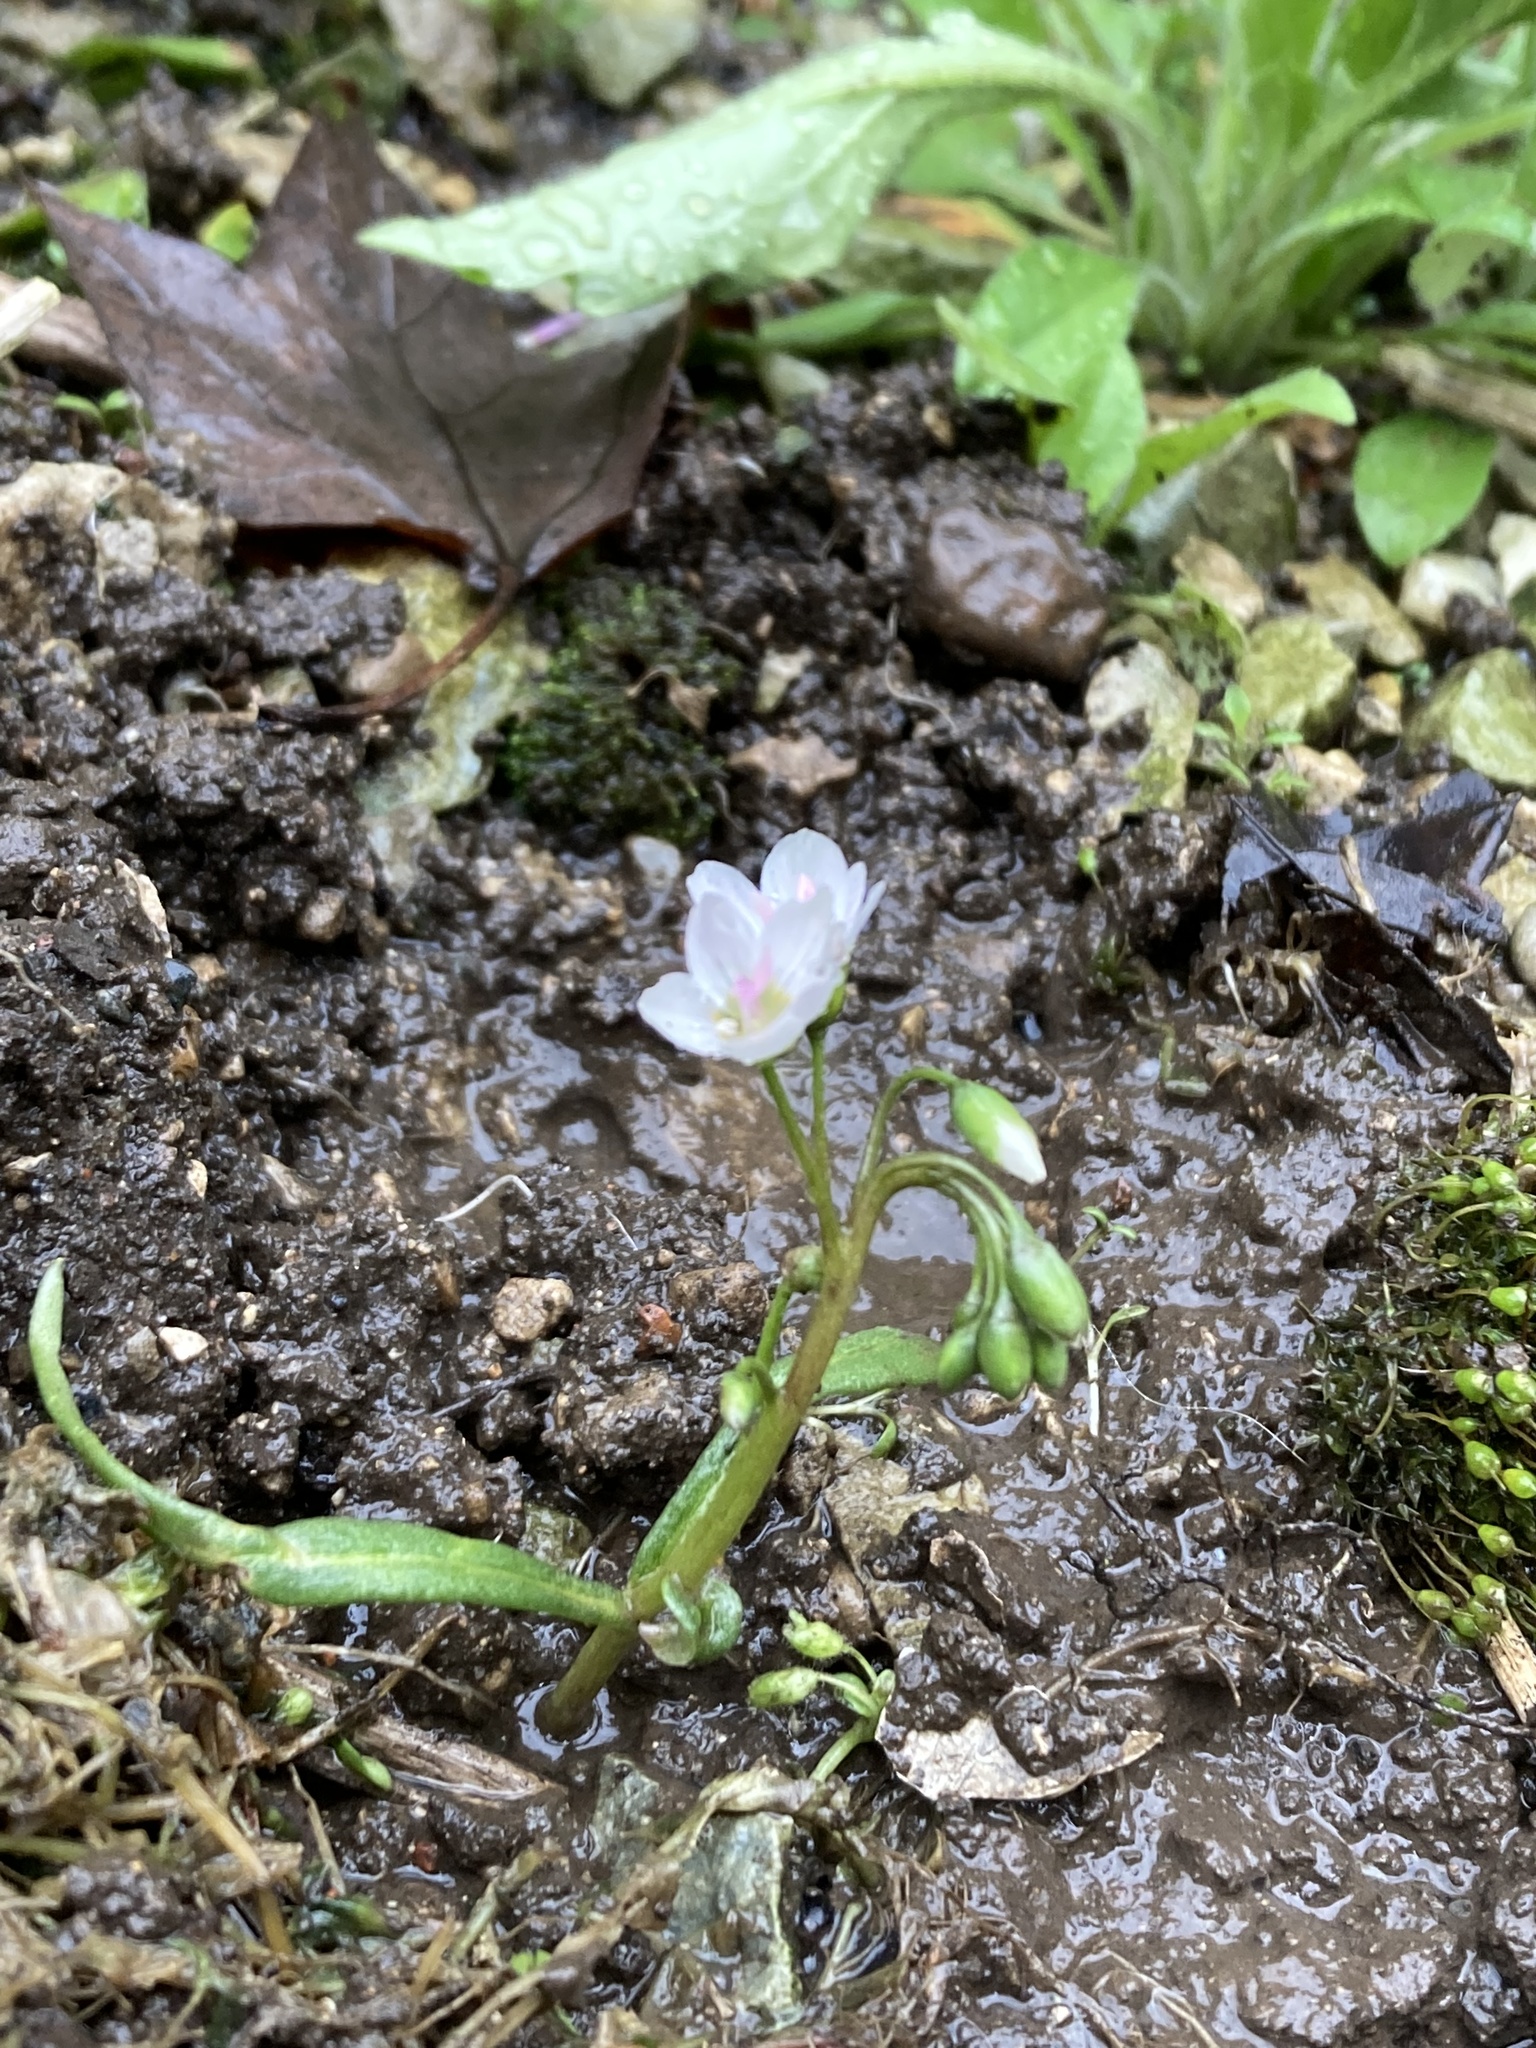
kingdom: Plantae
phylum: Tracheophyta
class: Magnoliopsida
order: Caryophyllales
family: Montiaceae
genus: Claytonia
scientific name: Claytonia virginica
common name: Virginia springbeauty
